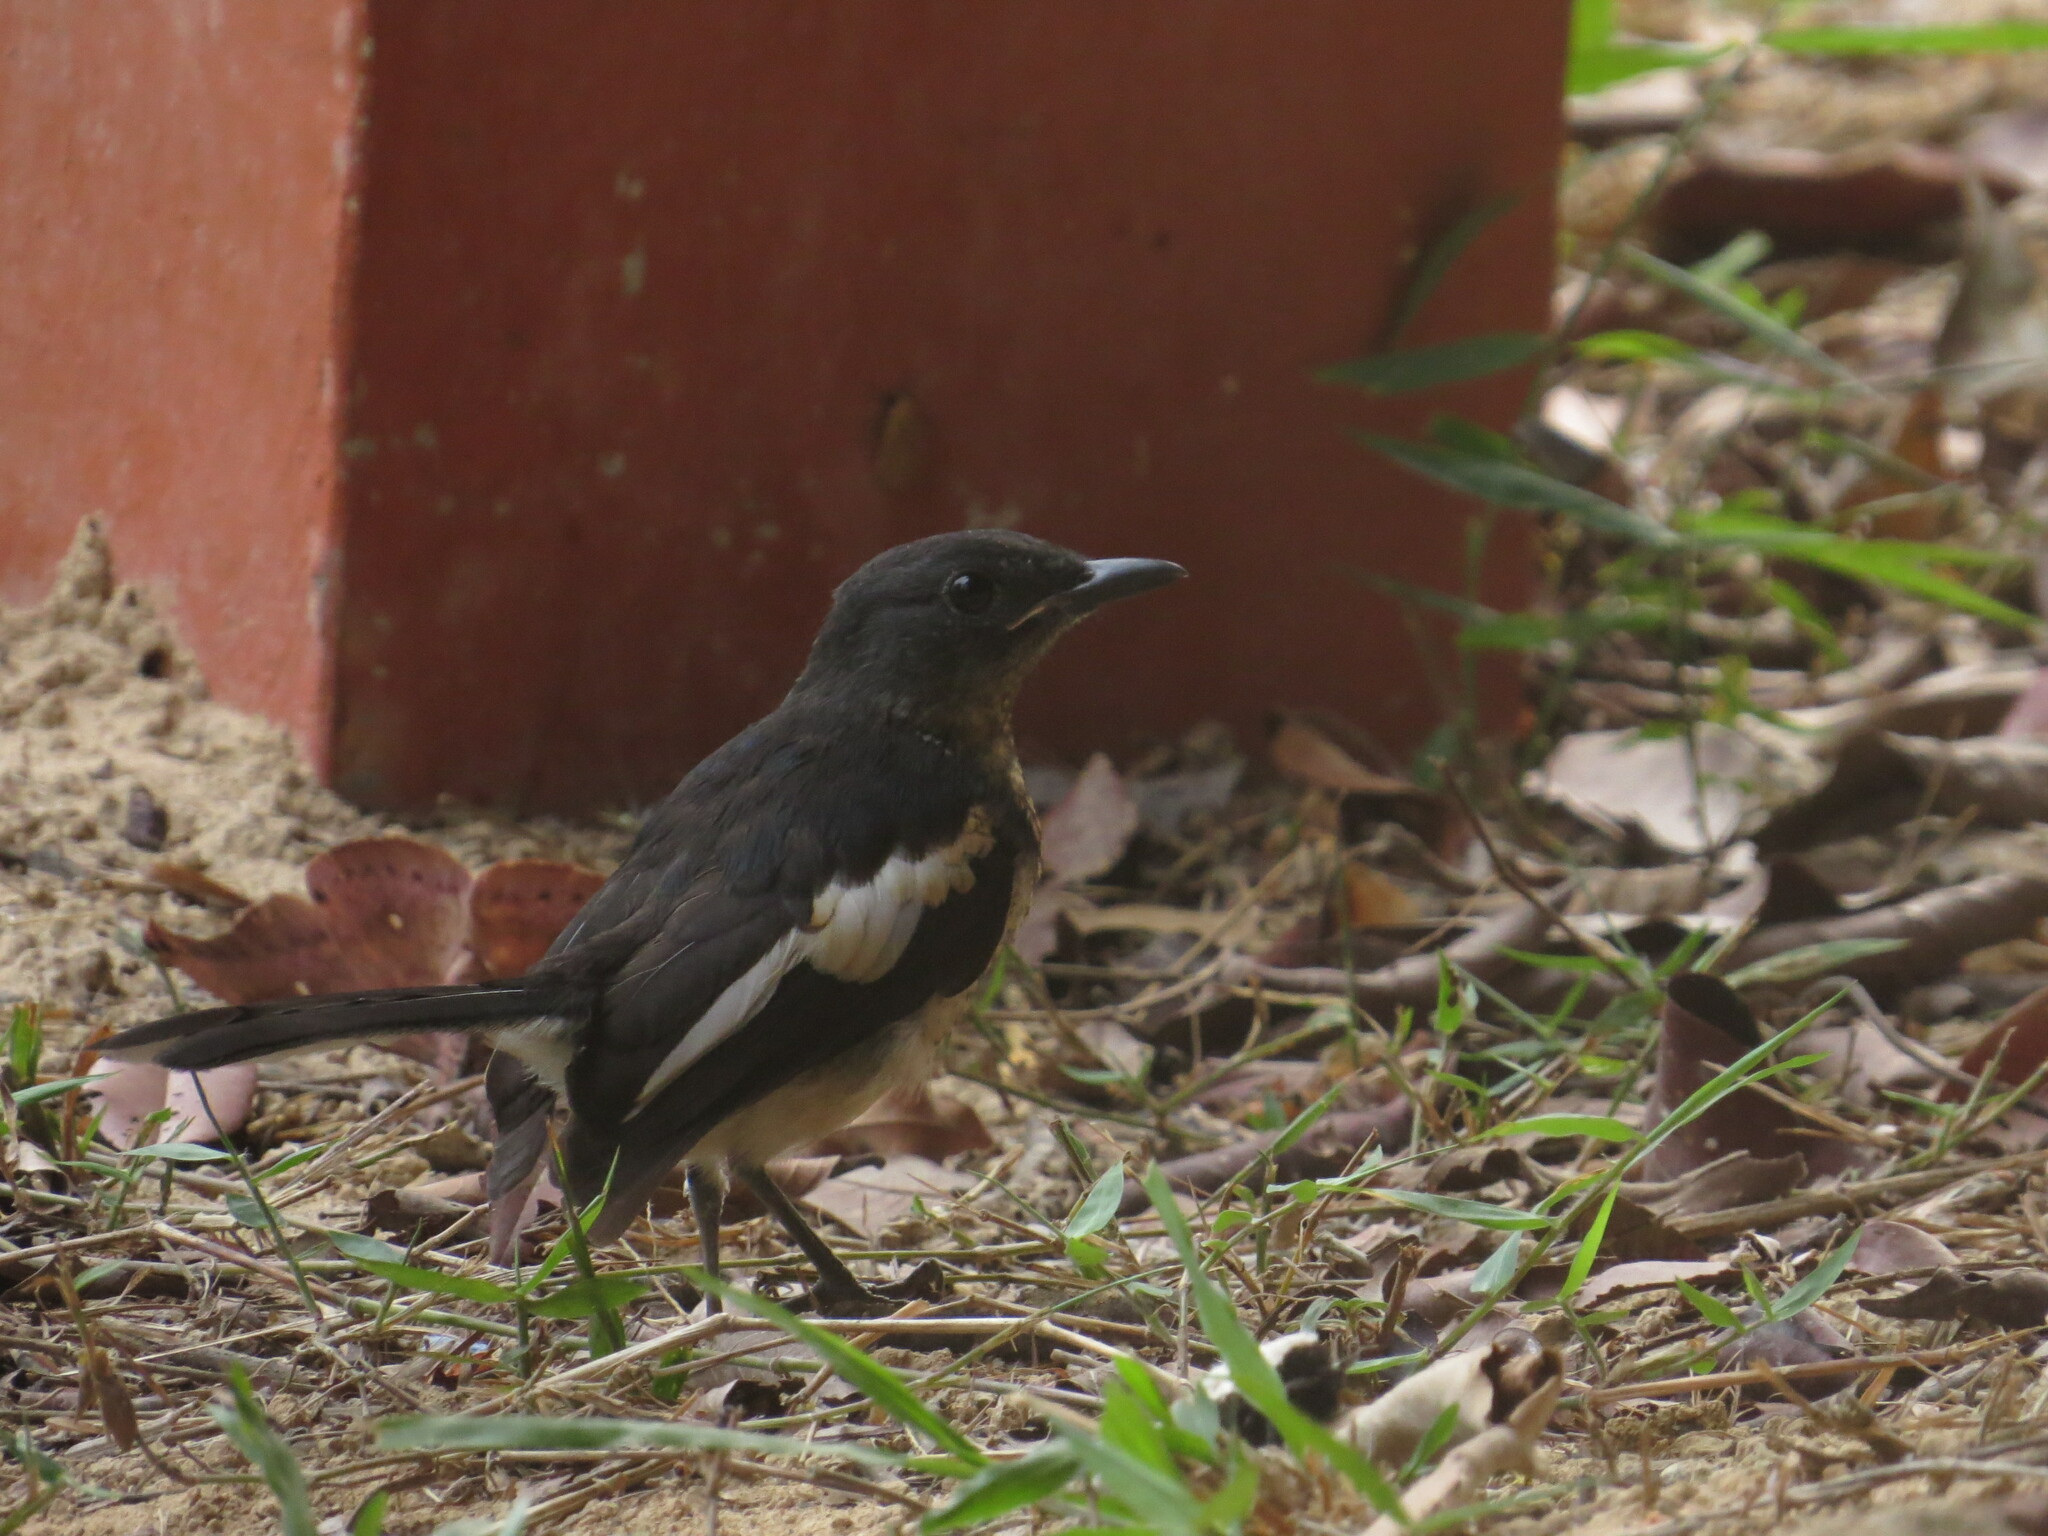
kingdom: Animalia
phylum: Chordata
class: Aves
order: Passeriformes
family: Muscicapidae
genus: Copsychus
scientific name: Copsychus saularis
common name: Oriental magpie-robin
